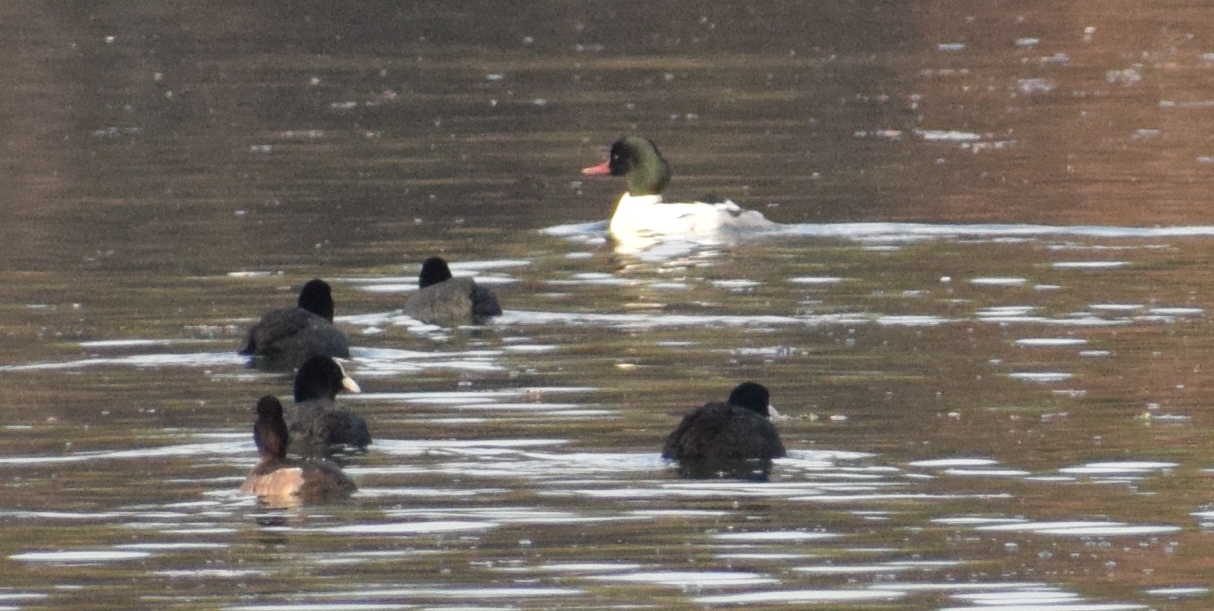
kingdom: Animalia
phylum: Chordata
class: Aves
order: Gruiformes
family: Rallidae
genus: Fulica
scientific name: Fulica atra
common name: Eurasian coot
